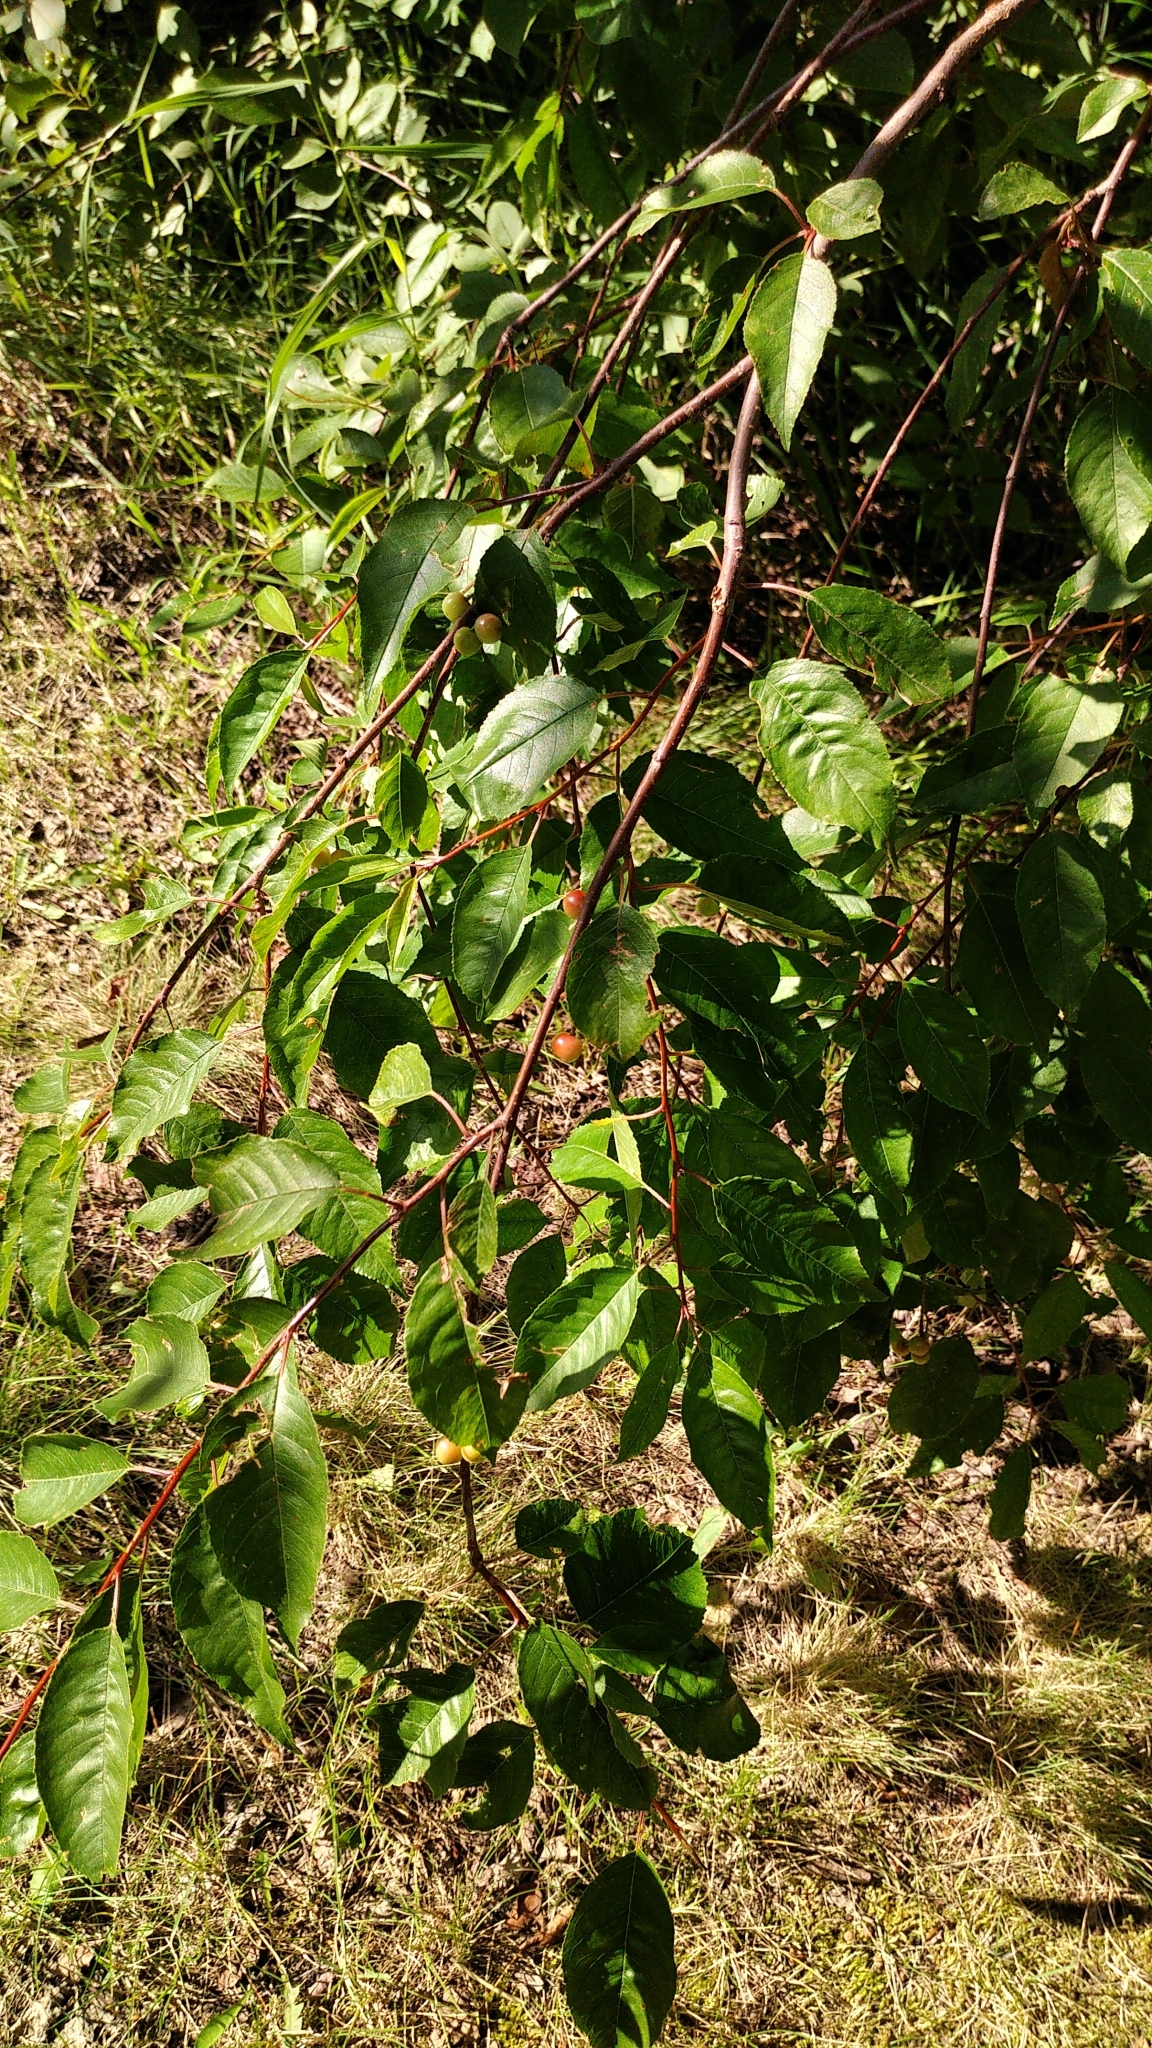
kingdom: Plantae
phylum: Tracheophyta
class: Magnoliopsida
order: Rosales
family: Rosaceae
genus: Prunus
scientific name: Prunus pensylvanica
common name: Pin cherry
